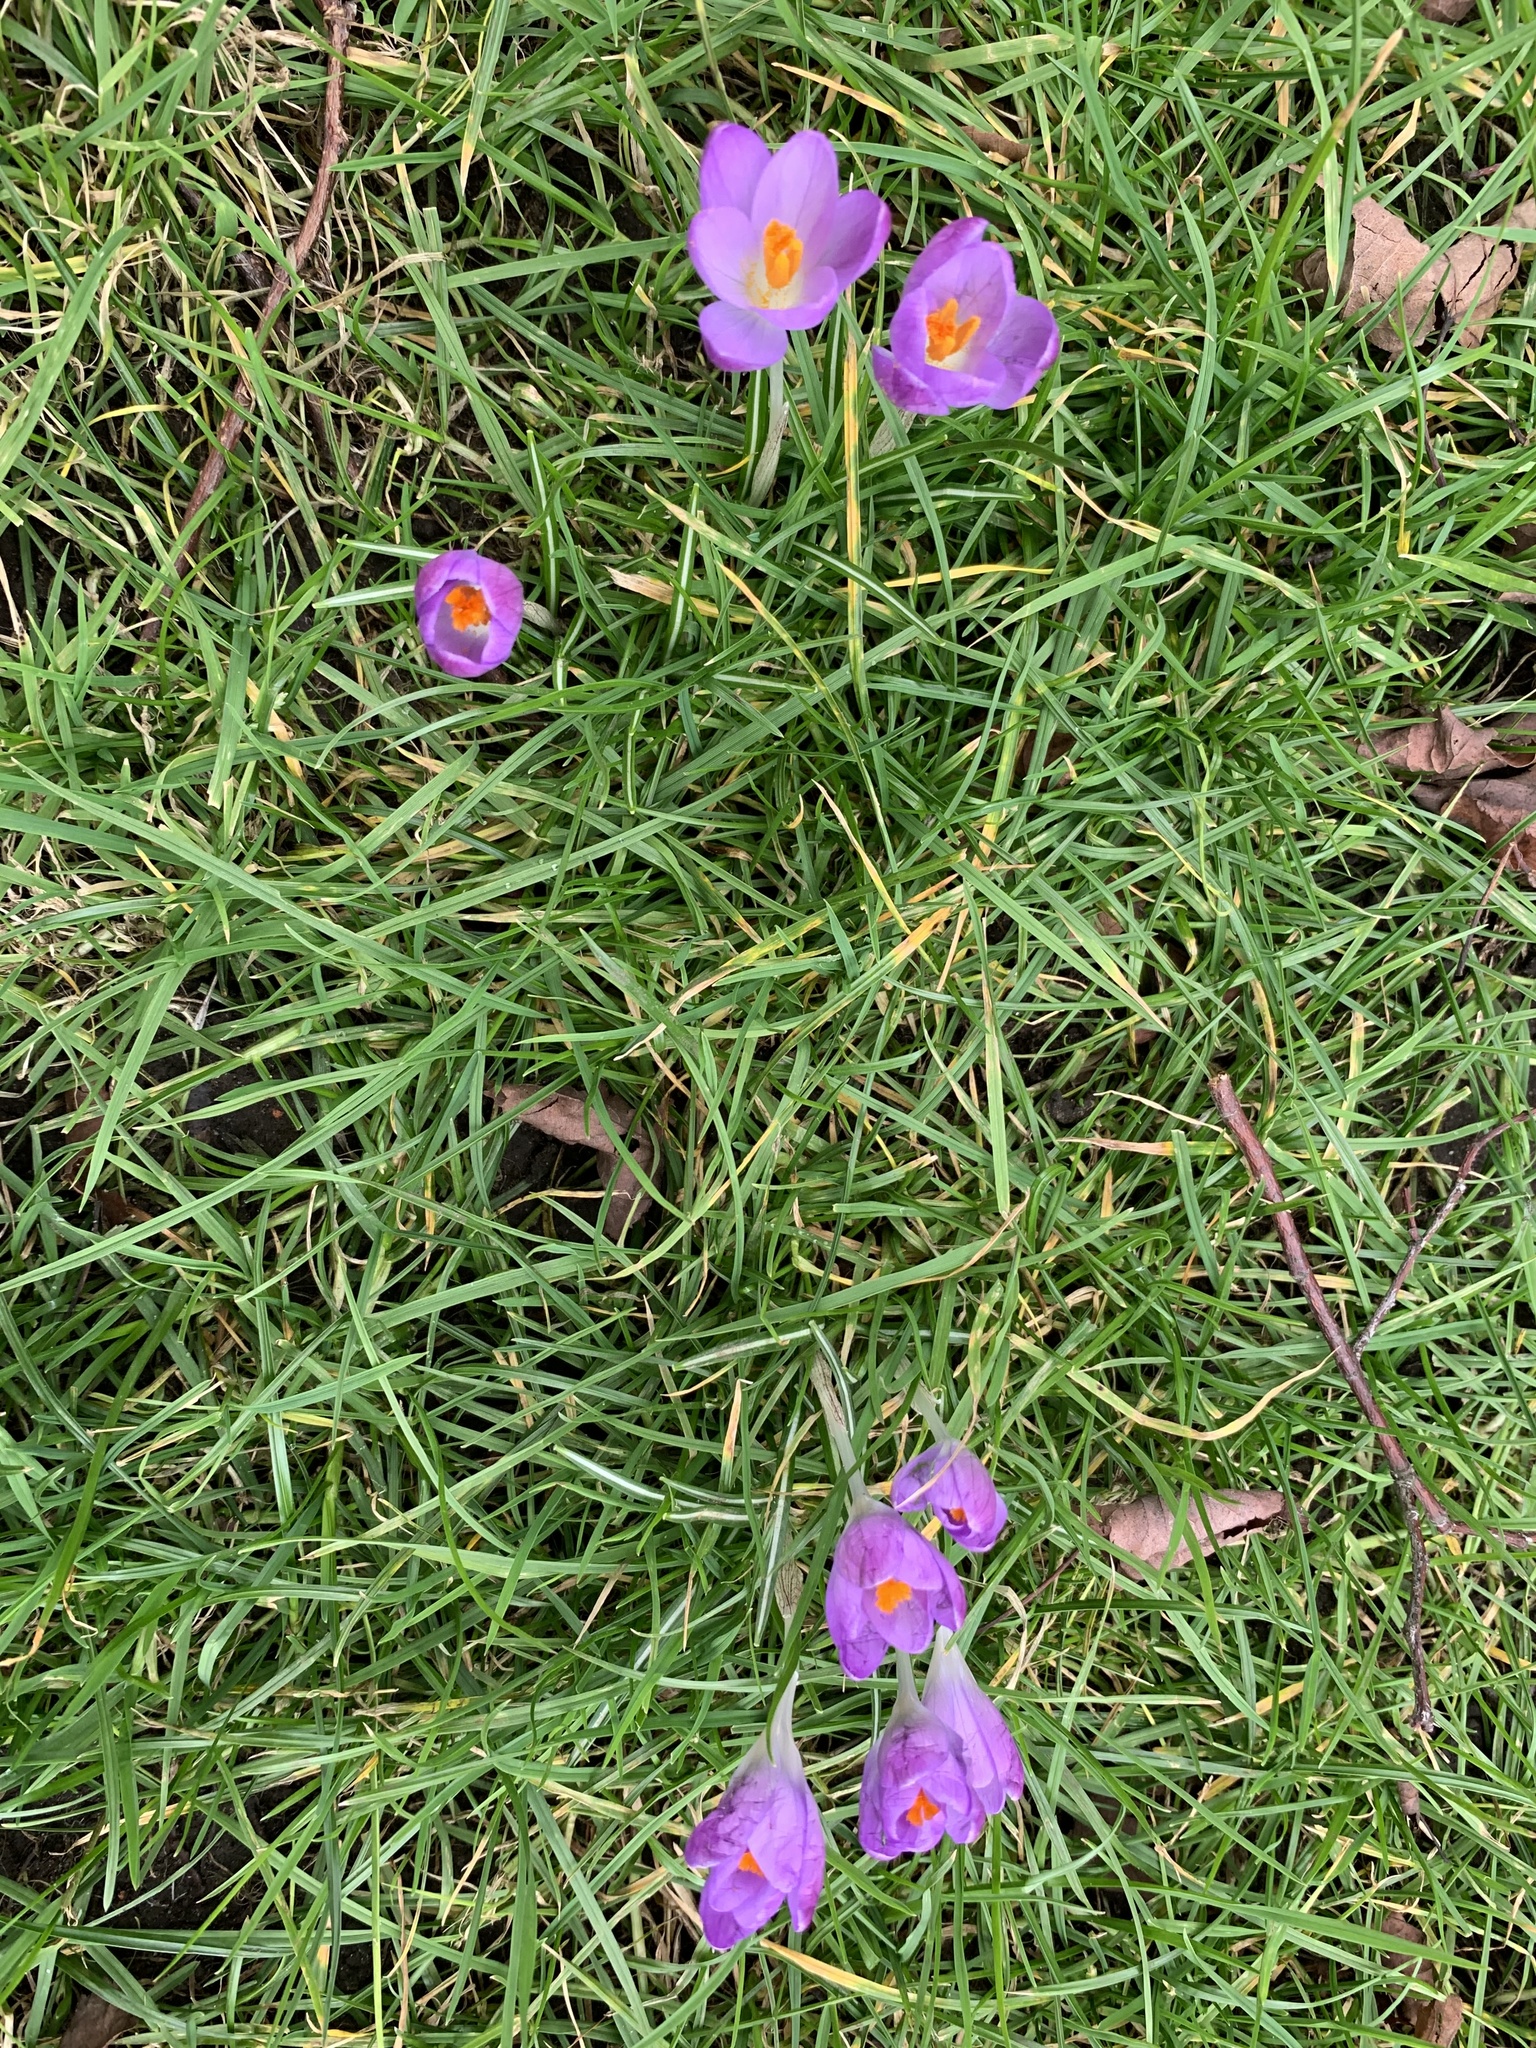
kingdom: Plantae
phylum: Tracheophyta
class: Liliopsida
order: Asparagales
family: Iridaceae
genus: Crocus
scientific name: Crocus tommasinianus
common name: Early crocus
